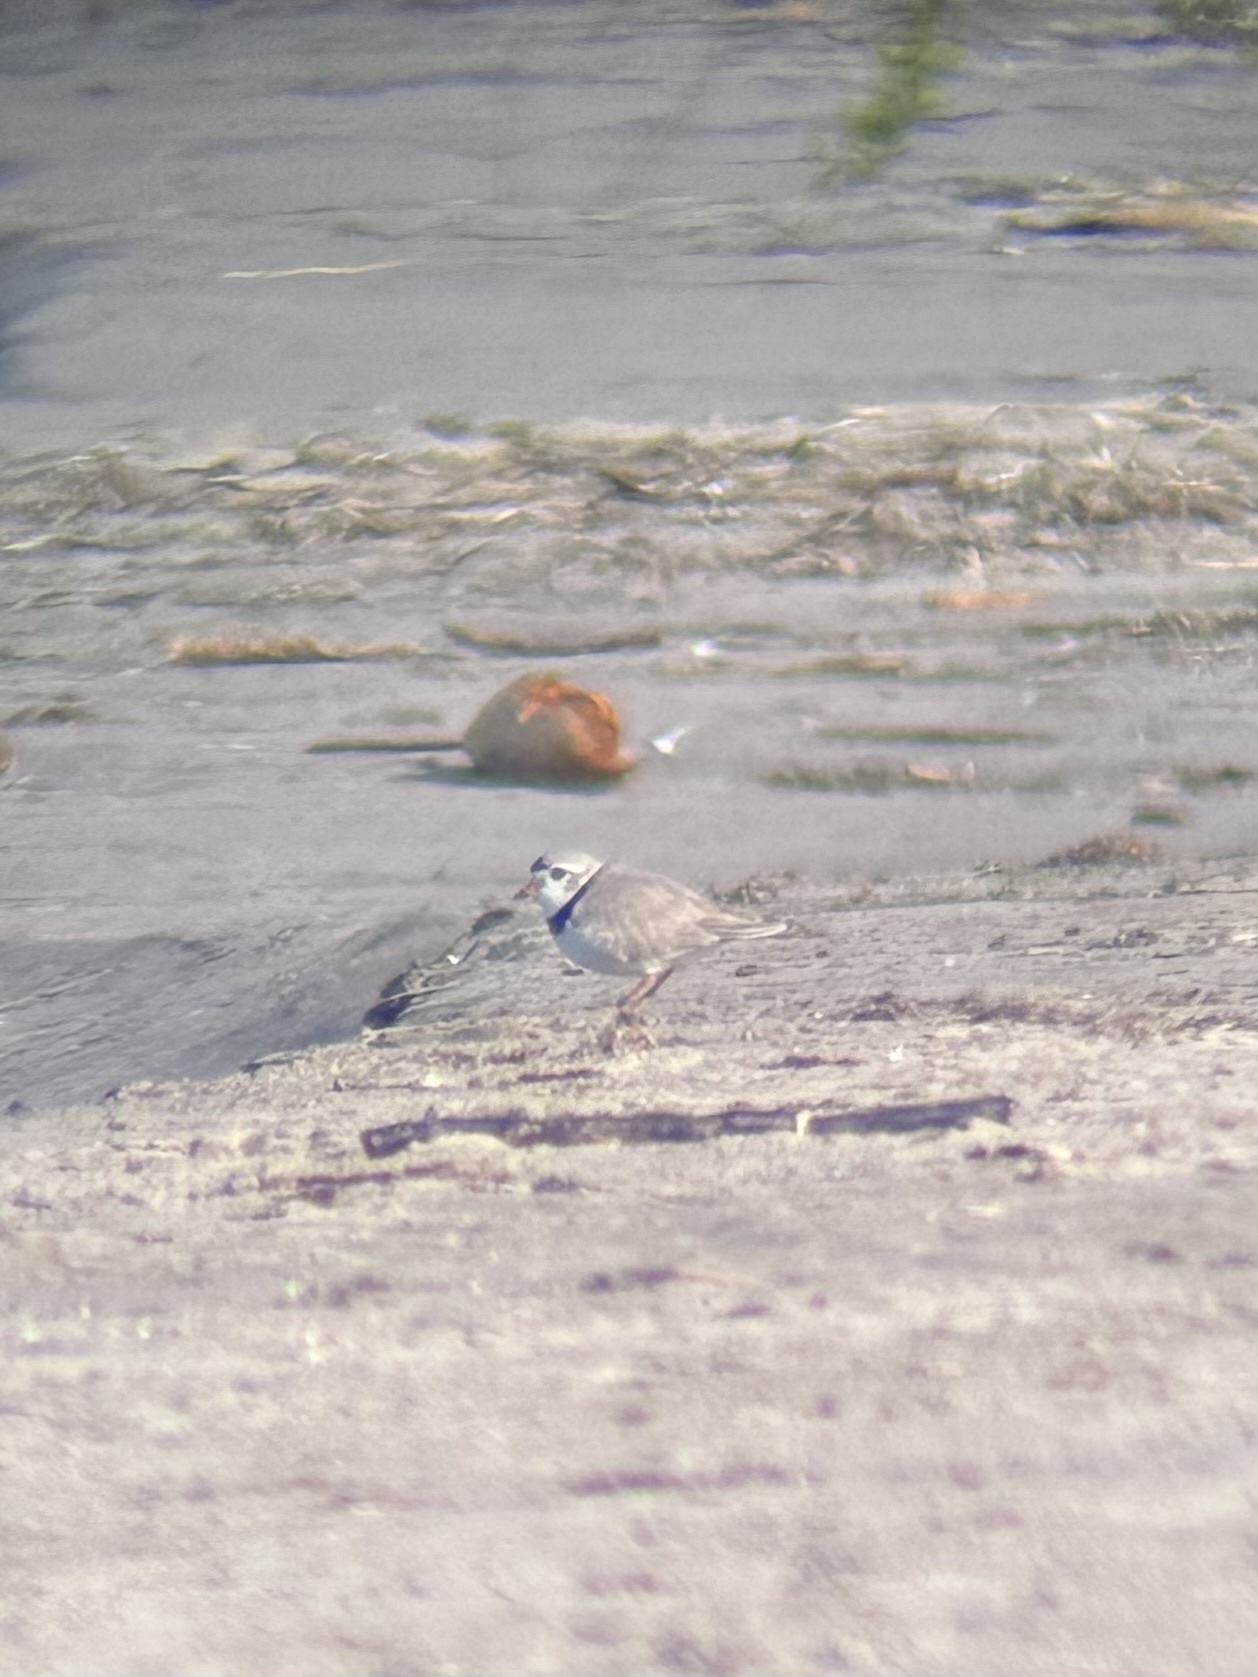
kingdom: Animalia
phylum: Chordata
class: Aves
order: Charadriiformes
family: Charadriidae
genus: Charadrius
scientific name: Charadrius melodus
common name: Piping plover
